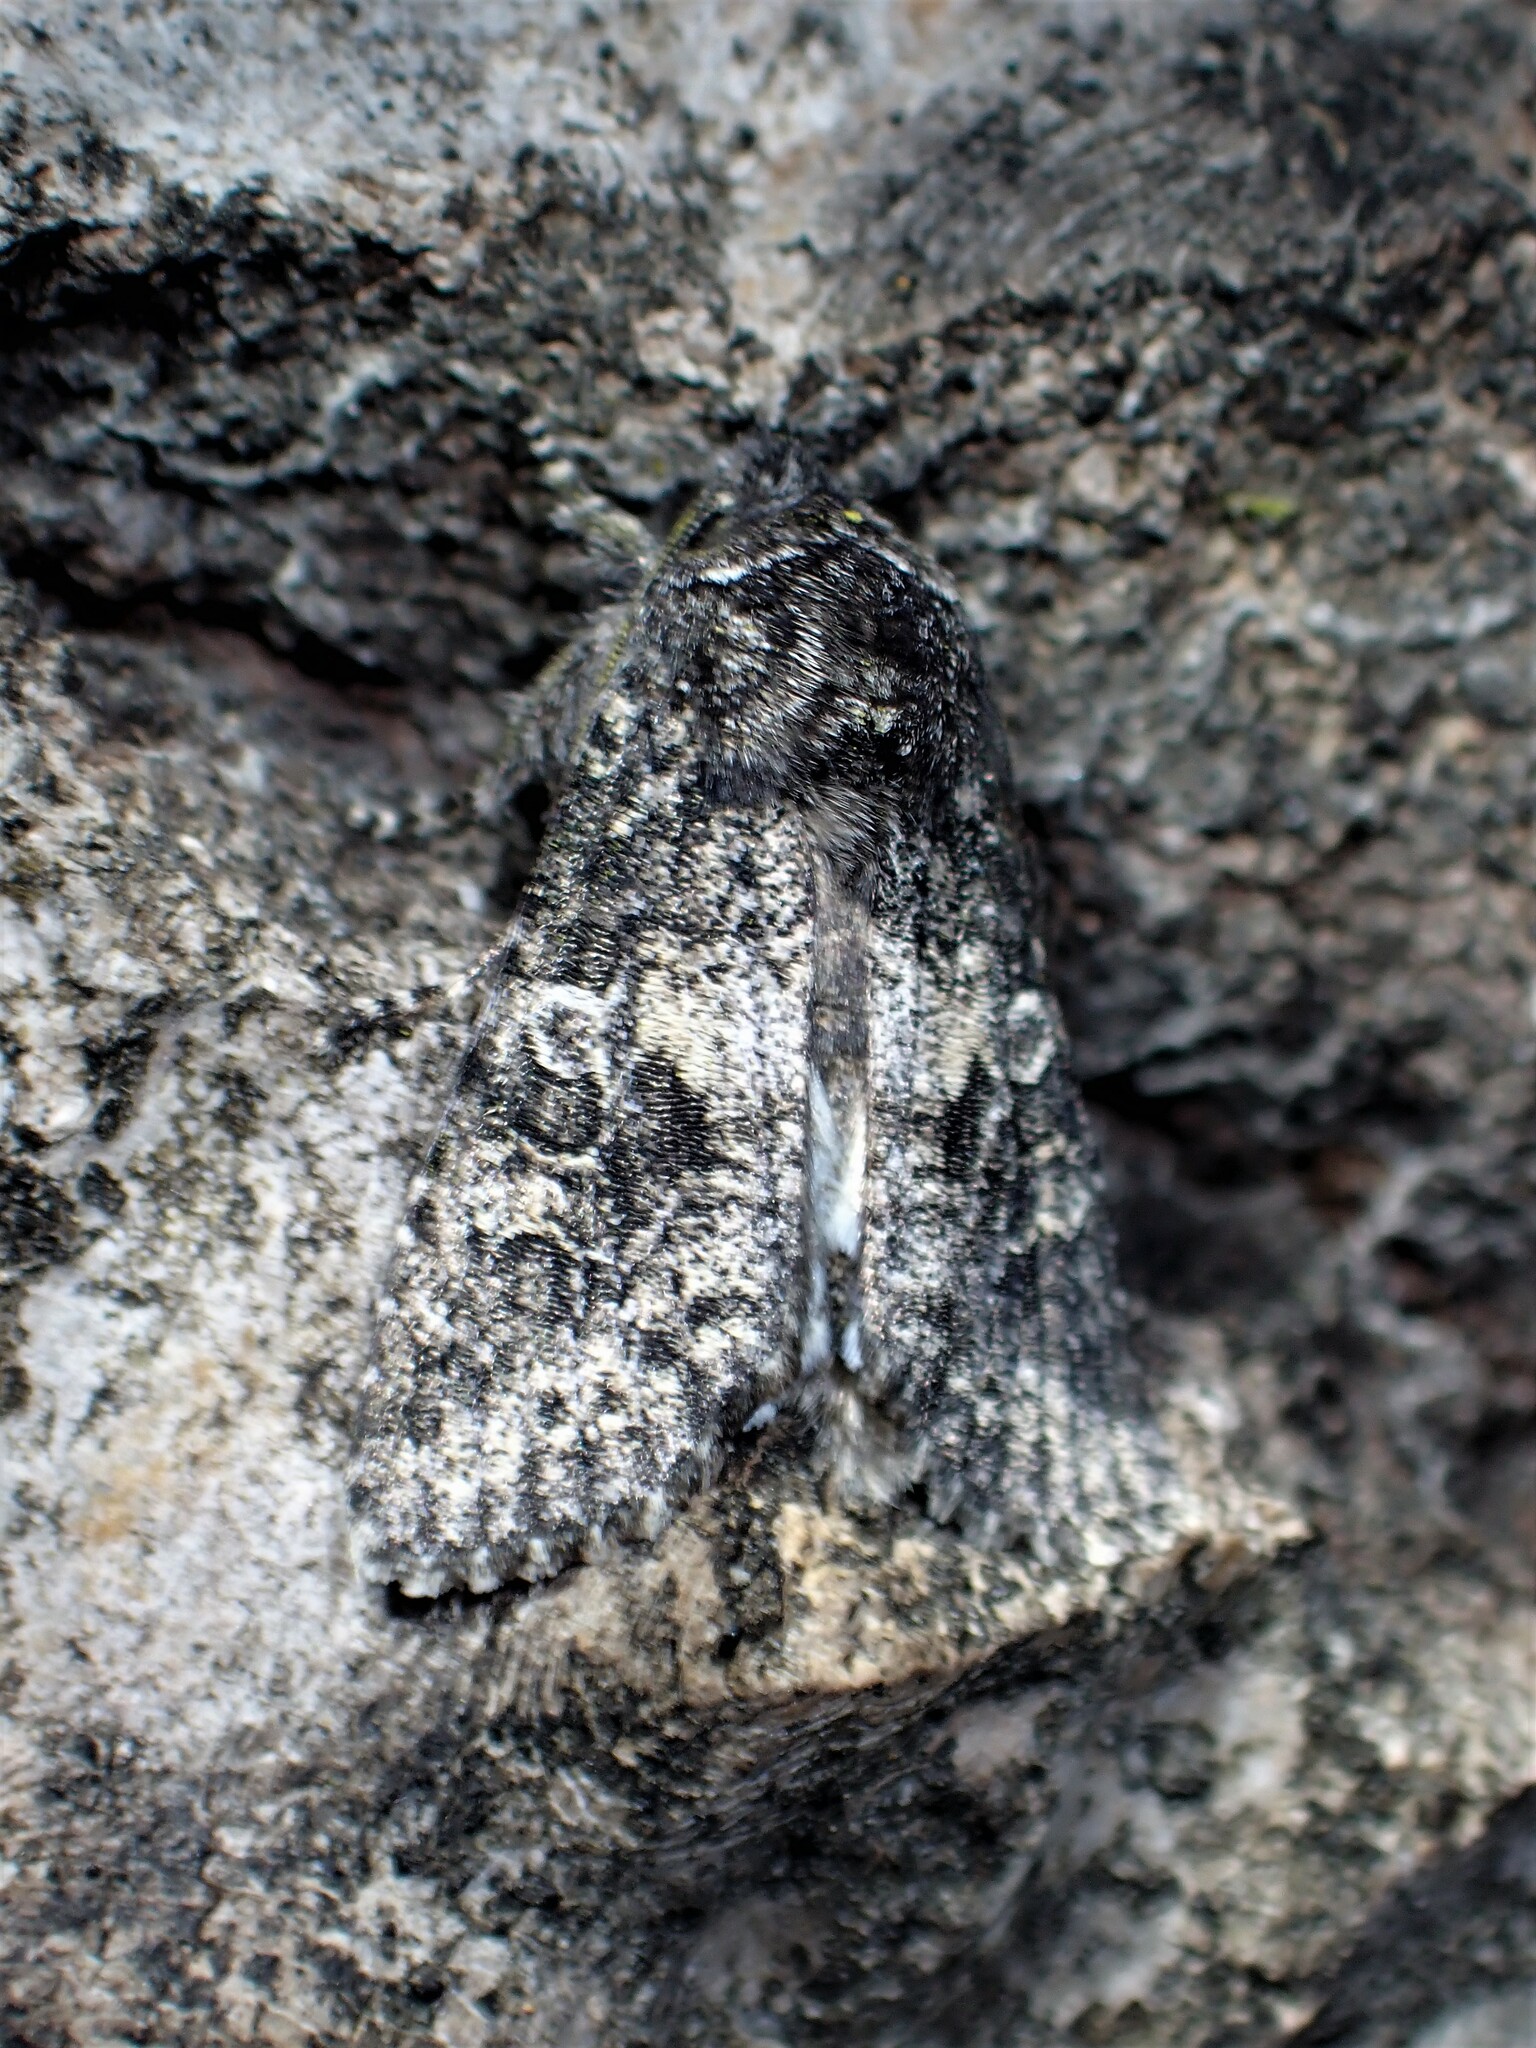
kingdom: Animalia
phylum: Arthropoda
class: Insecta
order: Lepidoptera
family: Noctuidae
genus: Egira
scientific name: Egira dolosa
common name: Lined black aspen cat.
